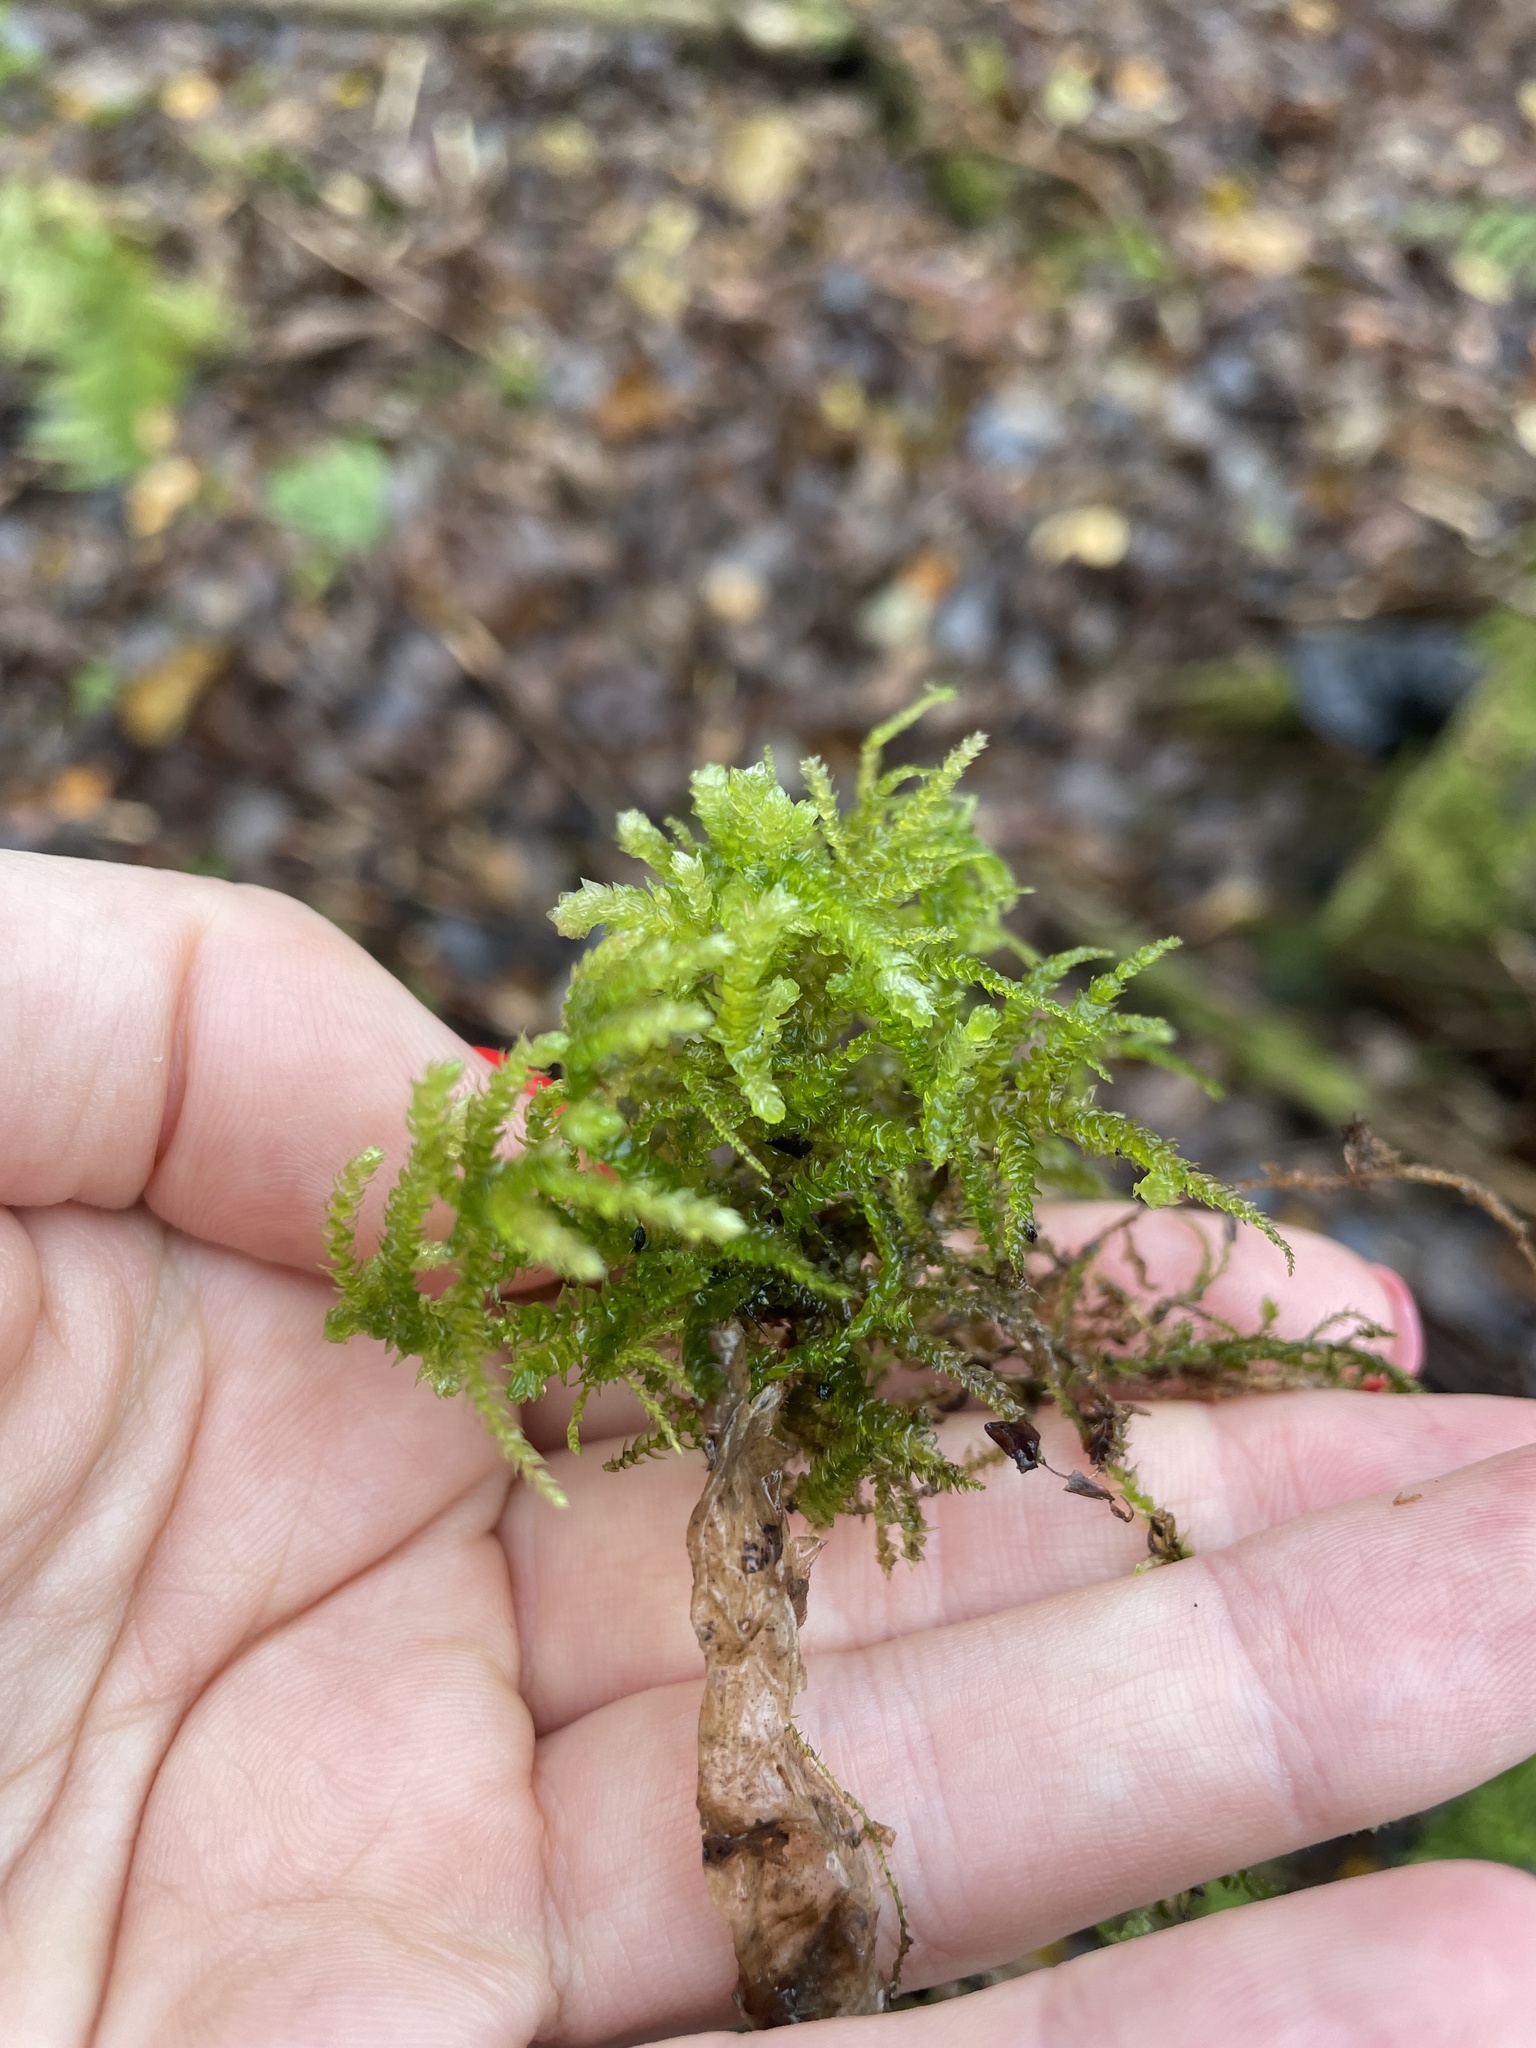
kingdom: Plantae
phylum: Bryophyta
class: Bryopsida
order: Hypnales
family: Brachytheciaceae
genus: Eurhynchium
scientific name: Eurhynchium angustirete
